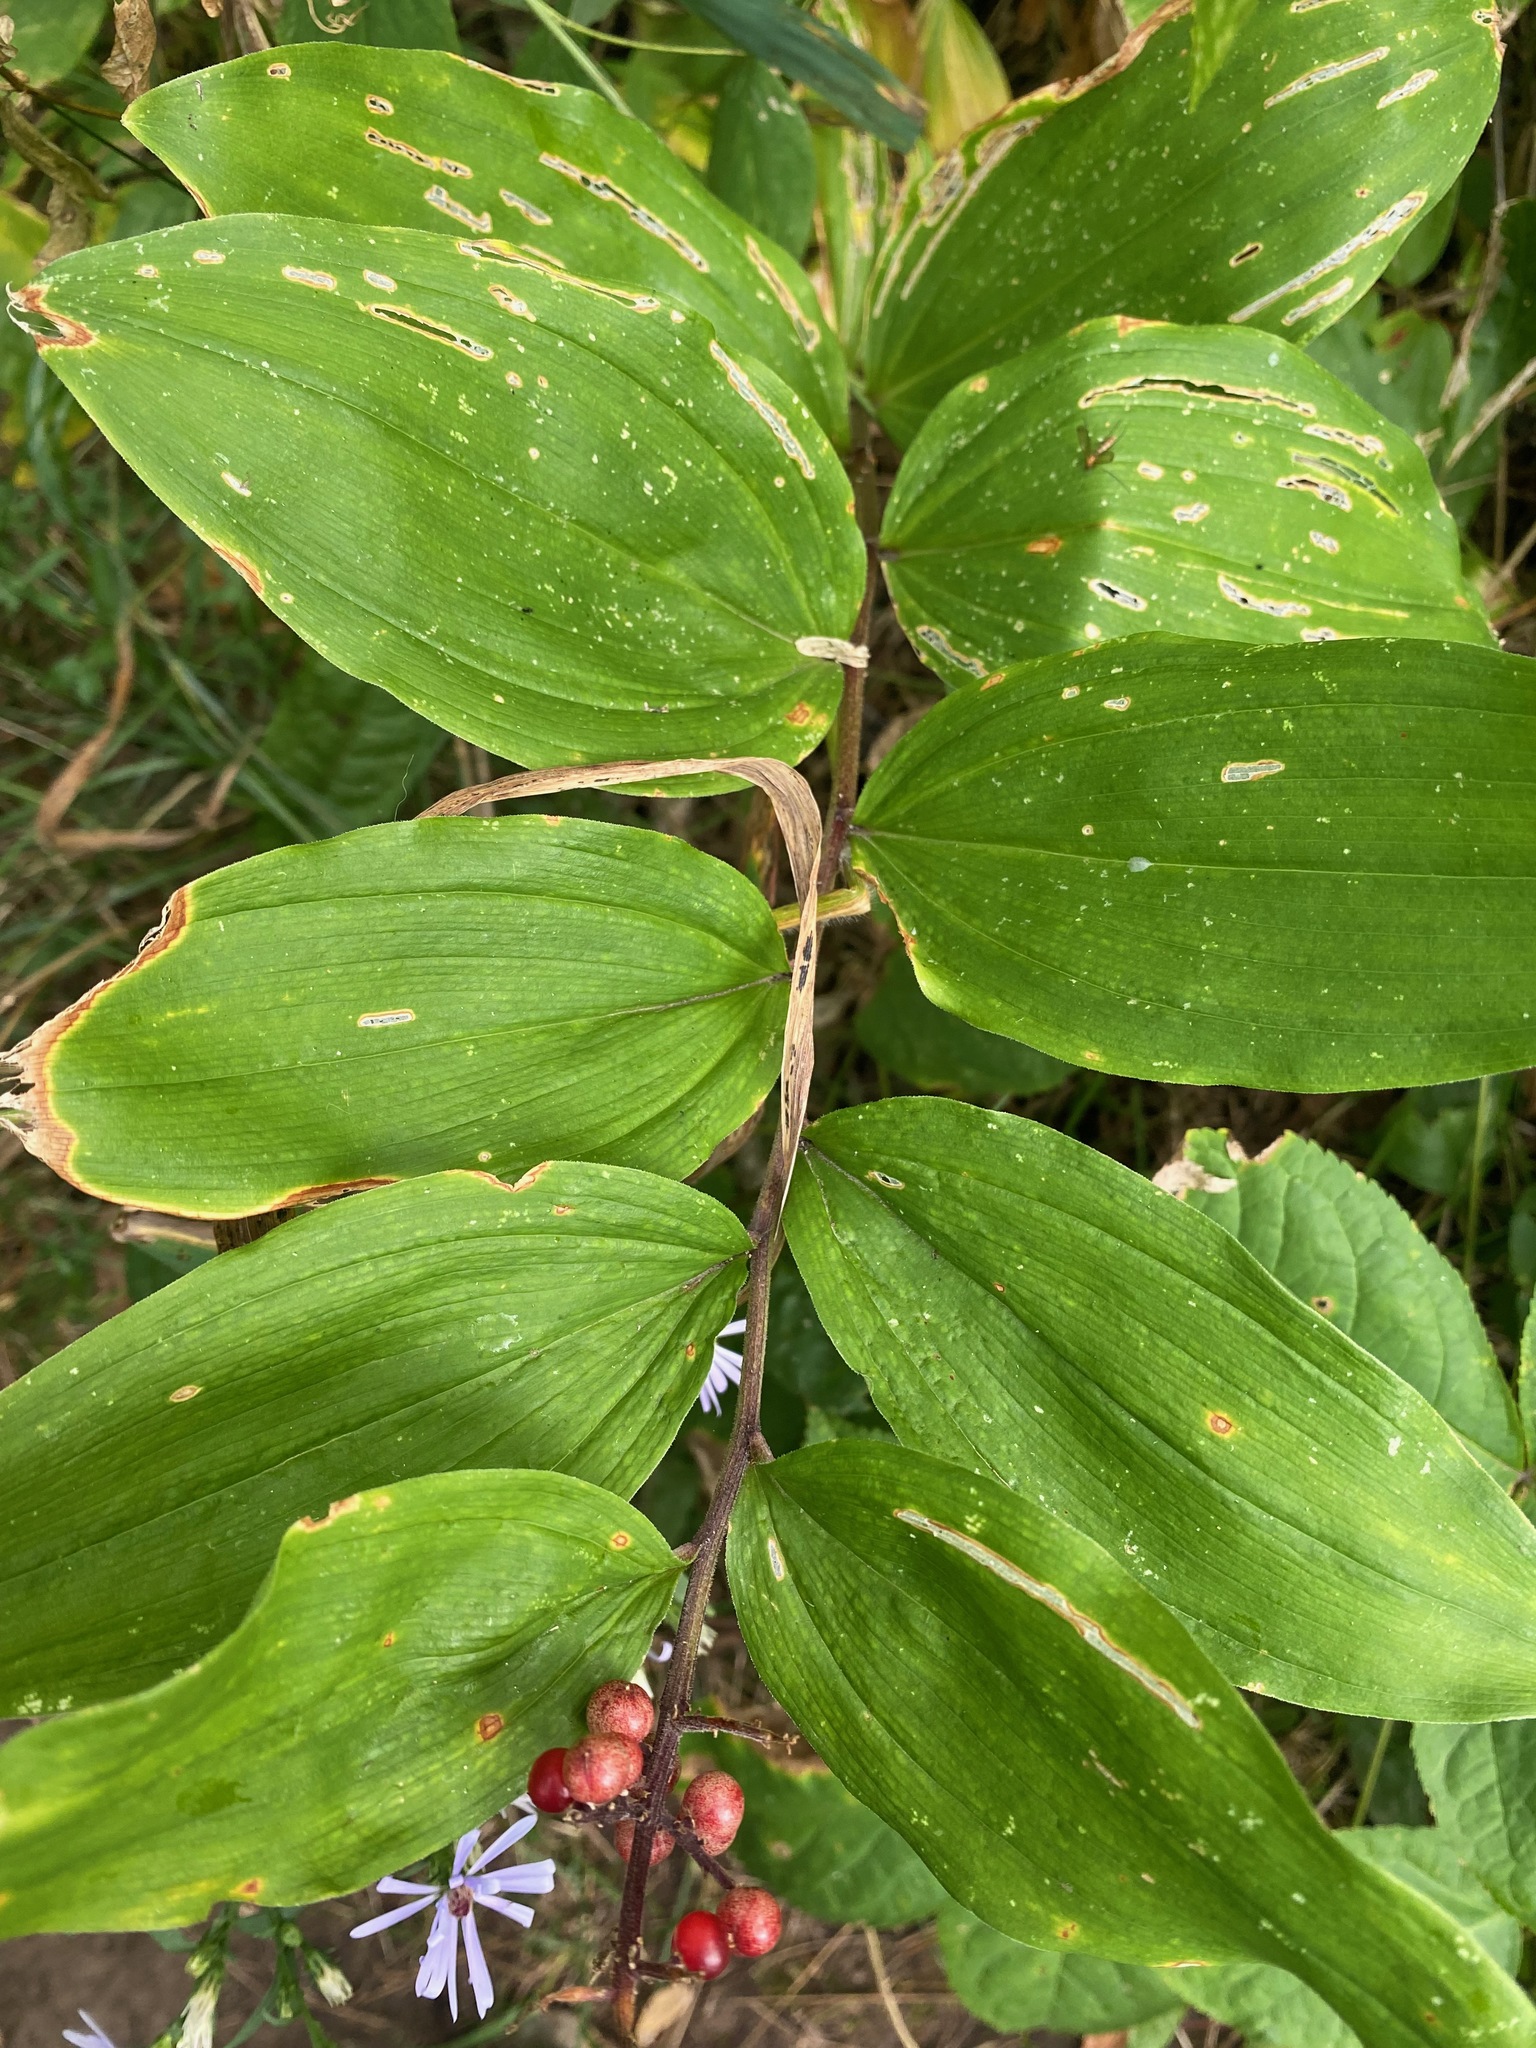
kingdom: Plantae
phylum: Tracheophyta
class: Liliopsida
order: Asparagales
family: Asparagaceae
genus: Maianthemum
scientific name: Maianthemum racemosum
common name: False spikenard
